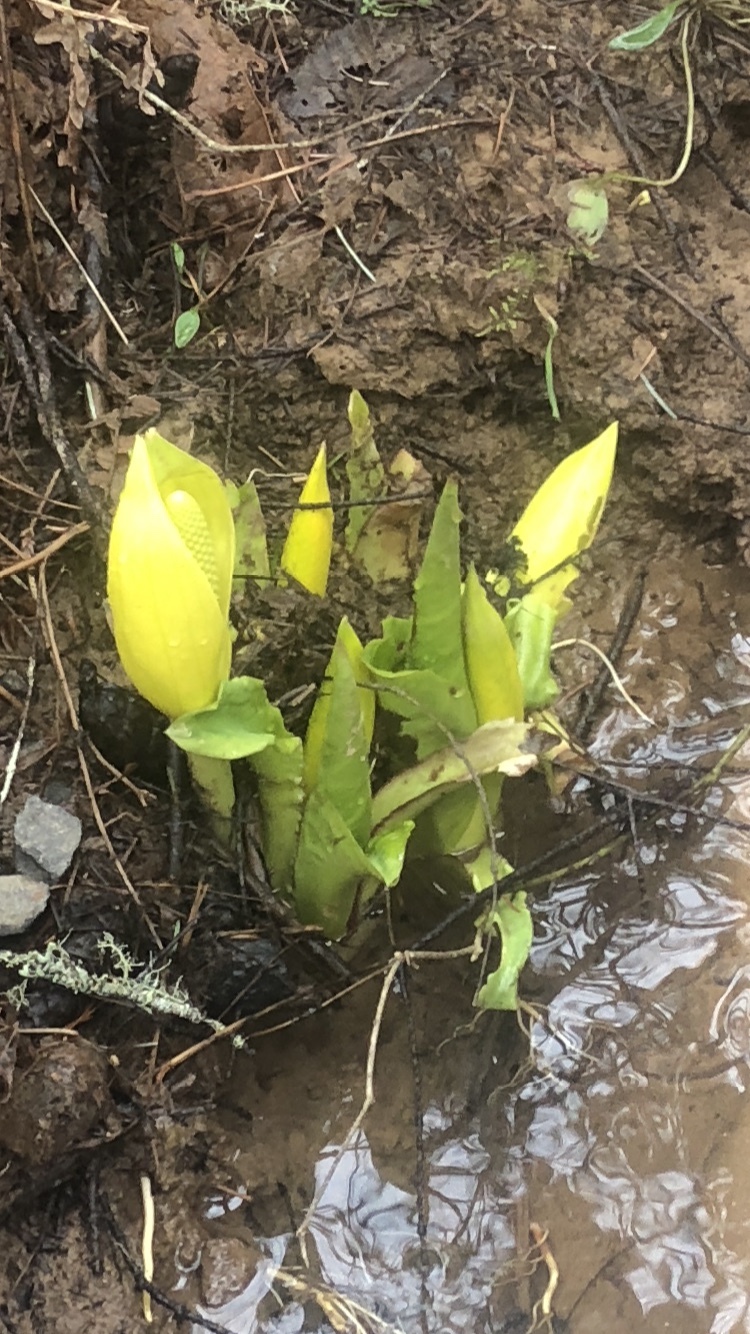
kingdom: Plantae
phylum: Tracheophyta
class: Liliopsida
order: Alismatales
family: Araceae
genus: Lysichiton
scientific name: Lysichiton americanus
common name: American skunk cabbage
